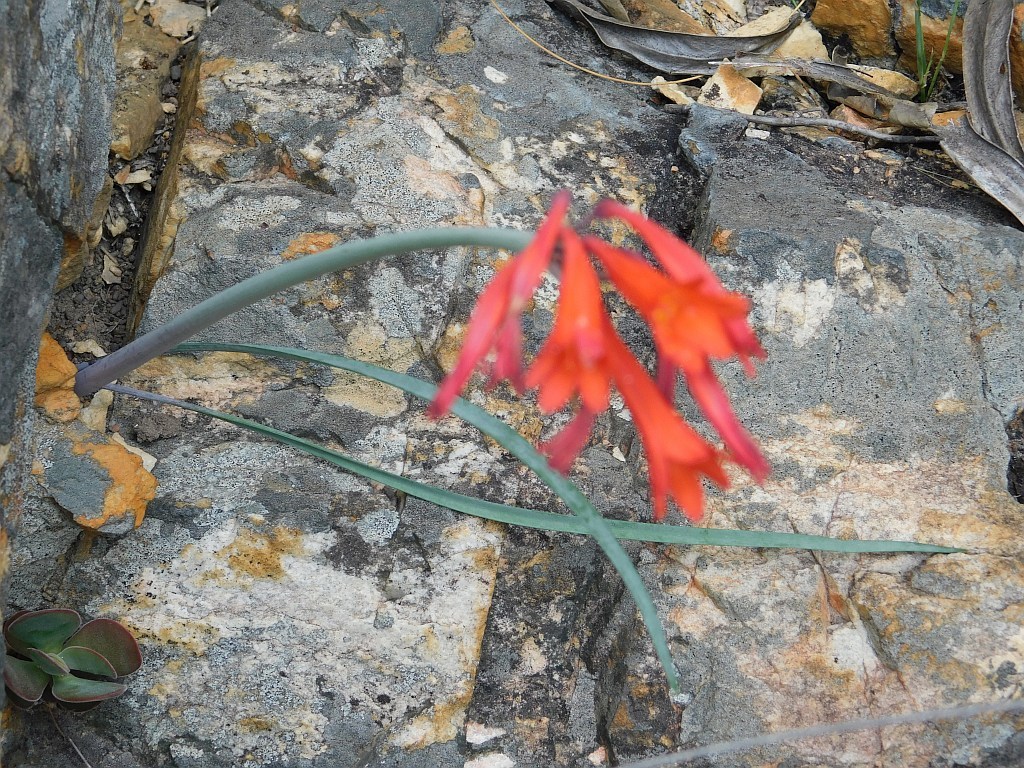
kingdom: Plantae
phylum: Tracheophyta
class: Liliopsida
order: Asparagales
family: Amaryllidaceae
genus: Cyrtanthus
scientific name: Cyrtanthus angustifolius
